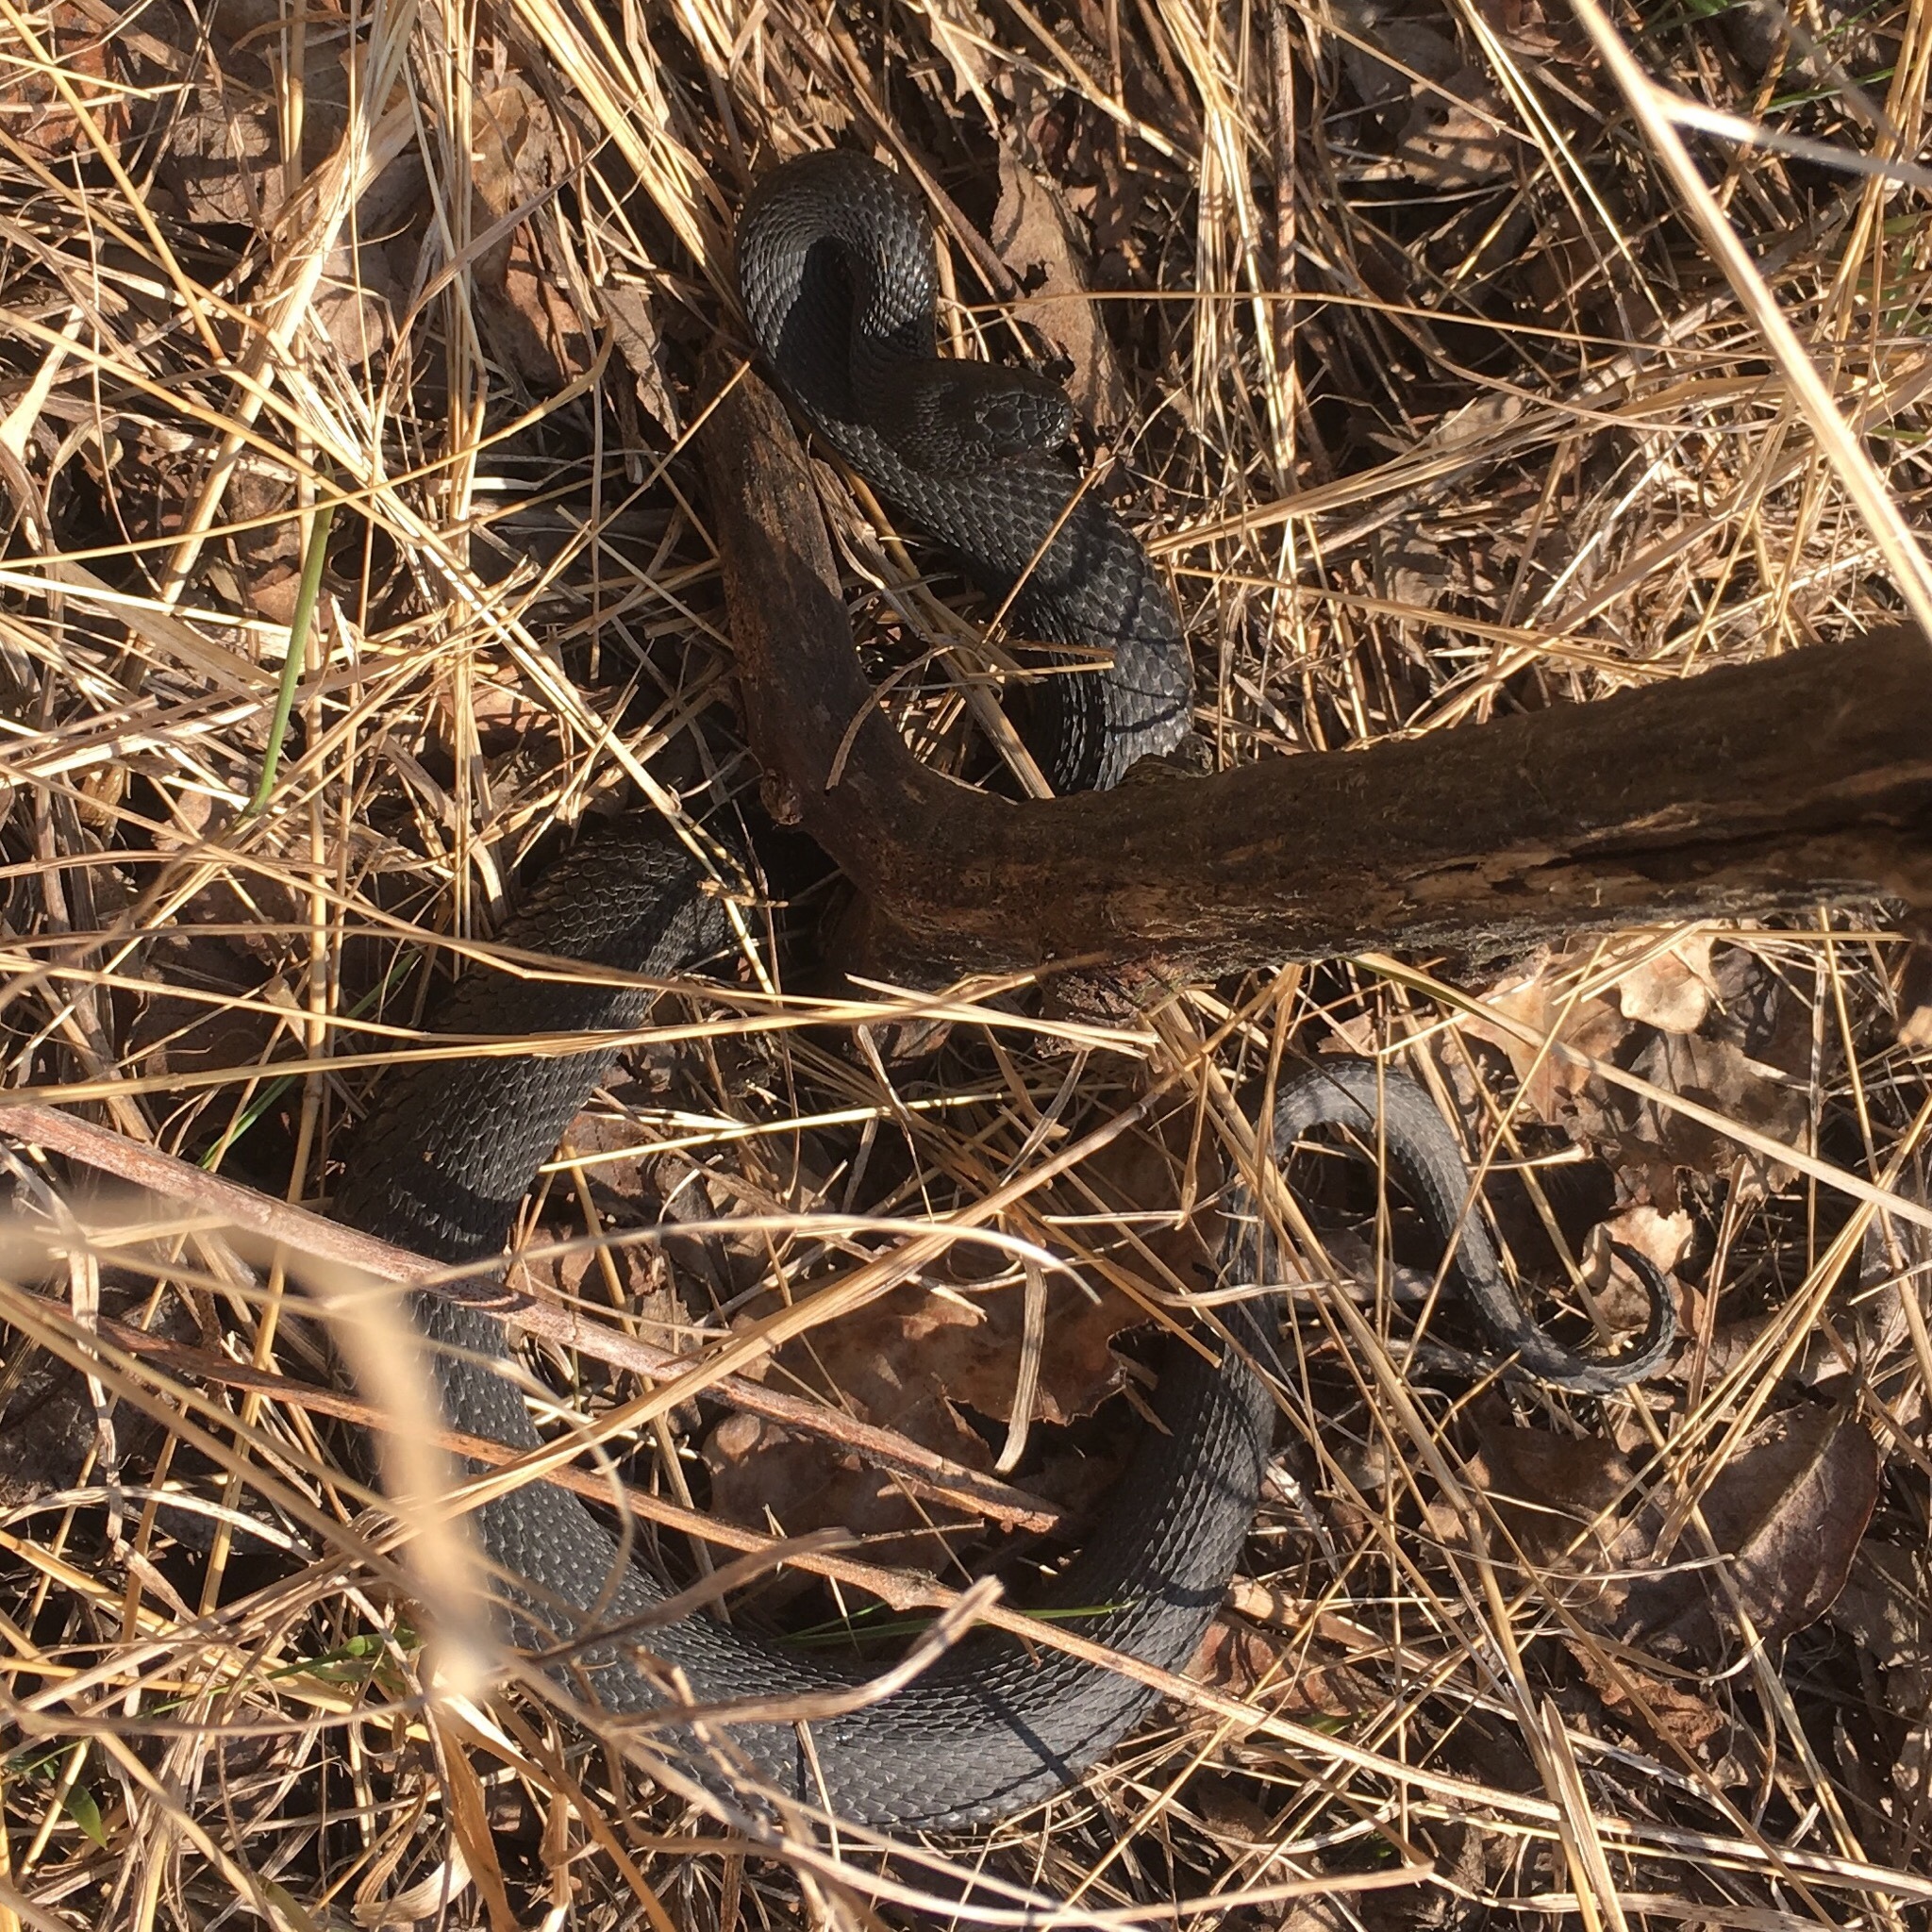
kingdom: Animalia
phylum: Chordata
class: Squamata
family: Viperidae
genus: Vipera
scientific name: Vipera nikolskii
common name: Adder
